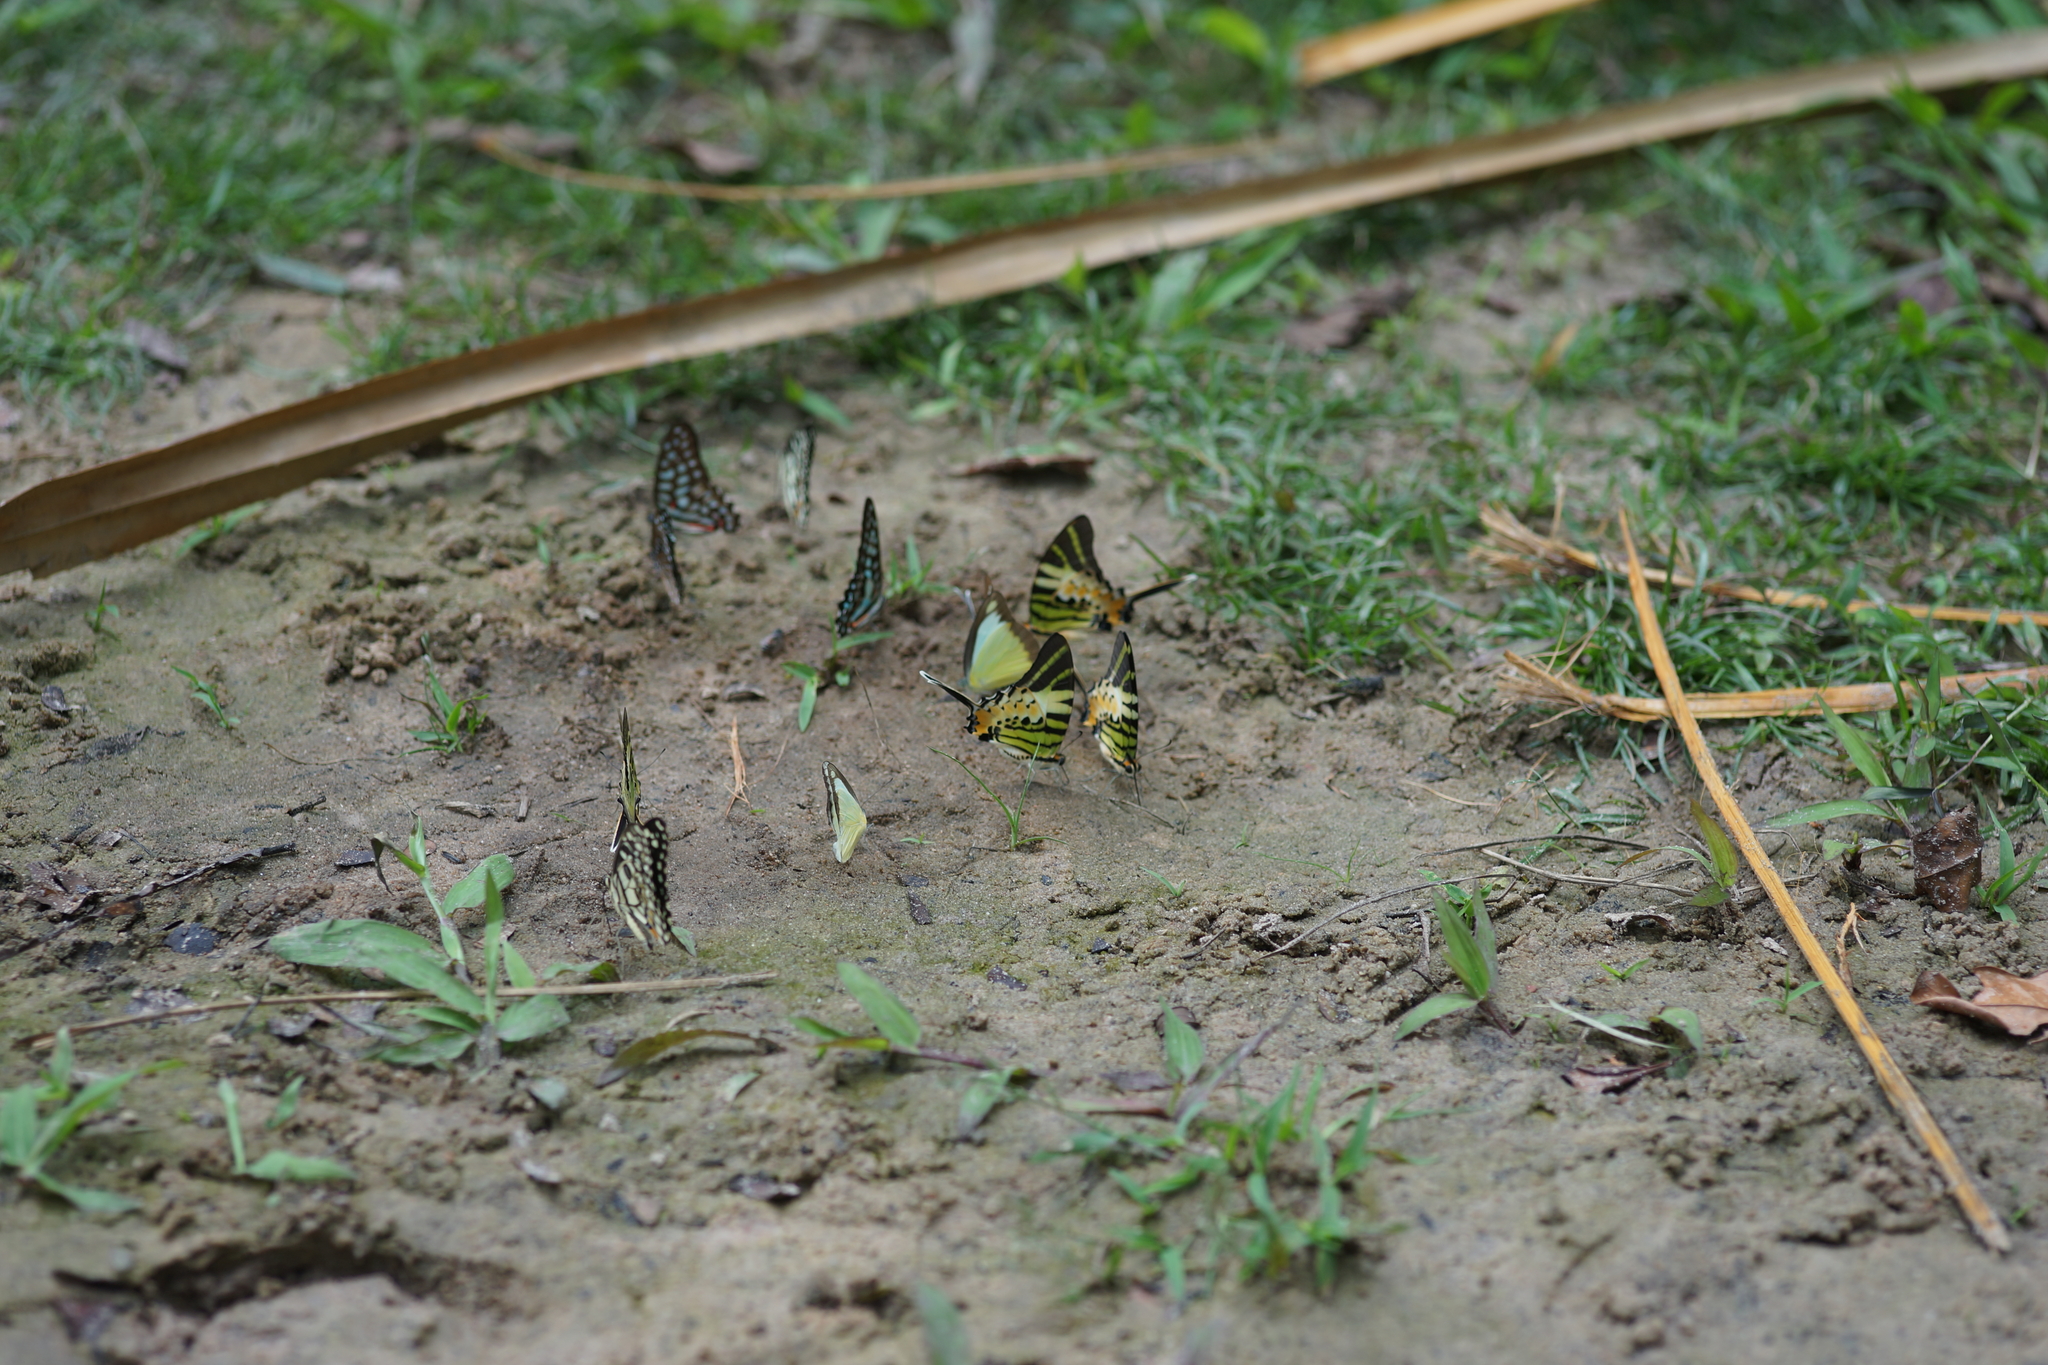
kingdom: Animalia
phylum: Arthropoda
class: Insecta
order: Lepidoptera
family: Papilionidae
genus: Graphium
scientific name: Graphium antiphates
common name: Fivebar swordtail
